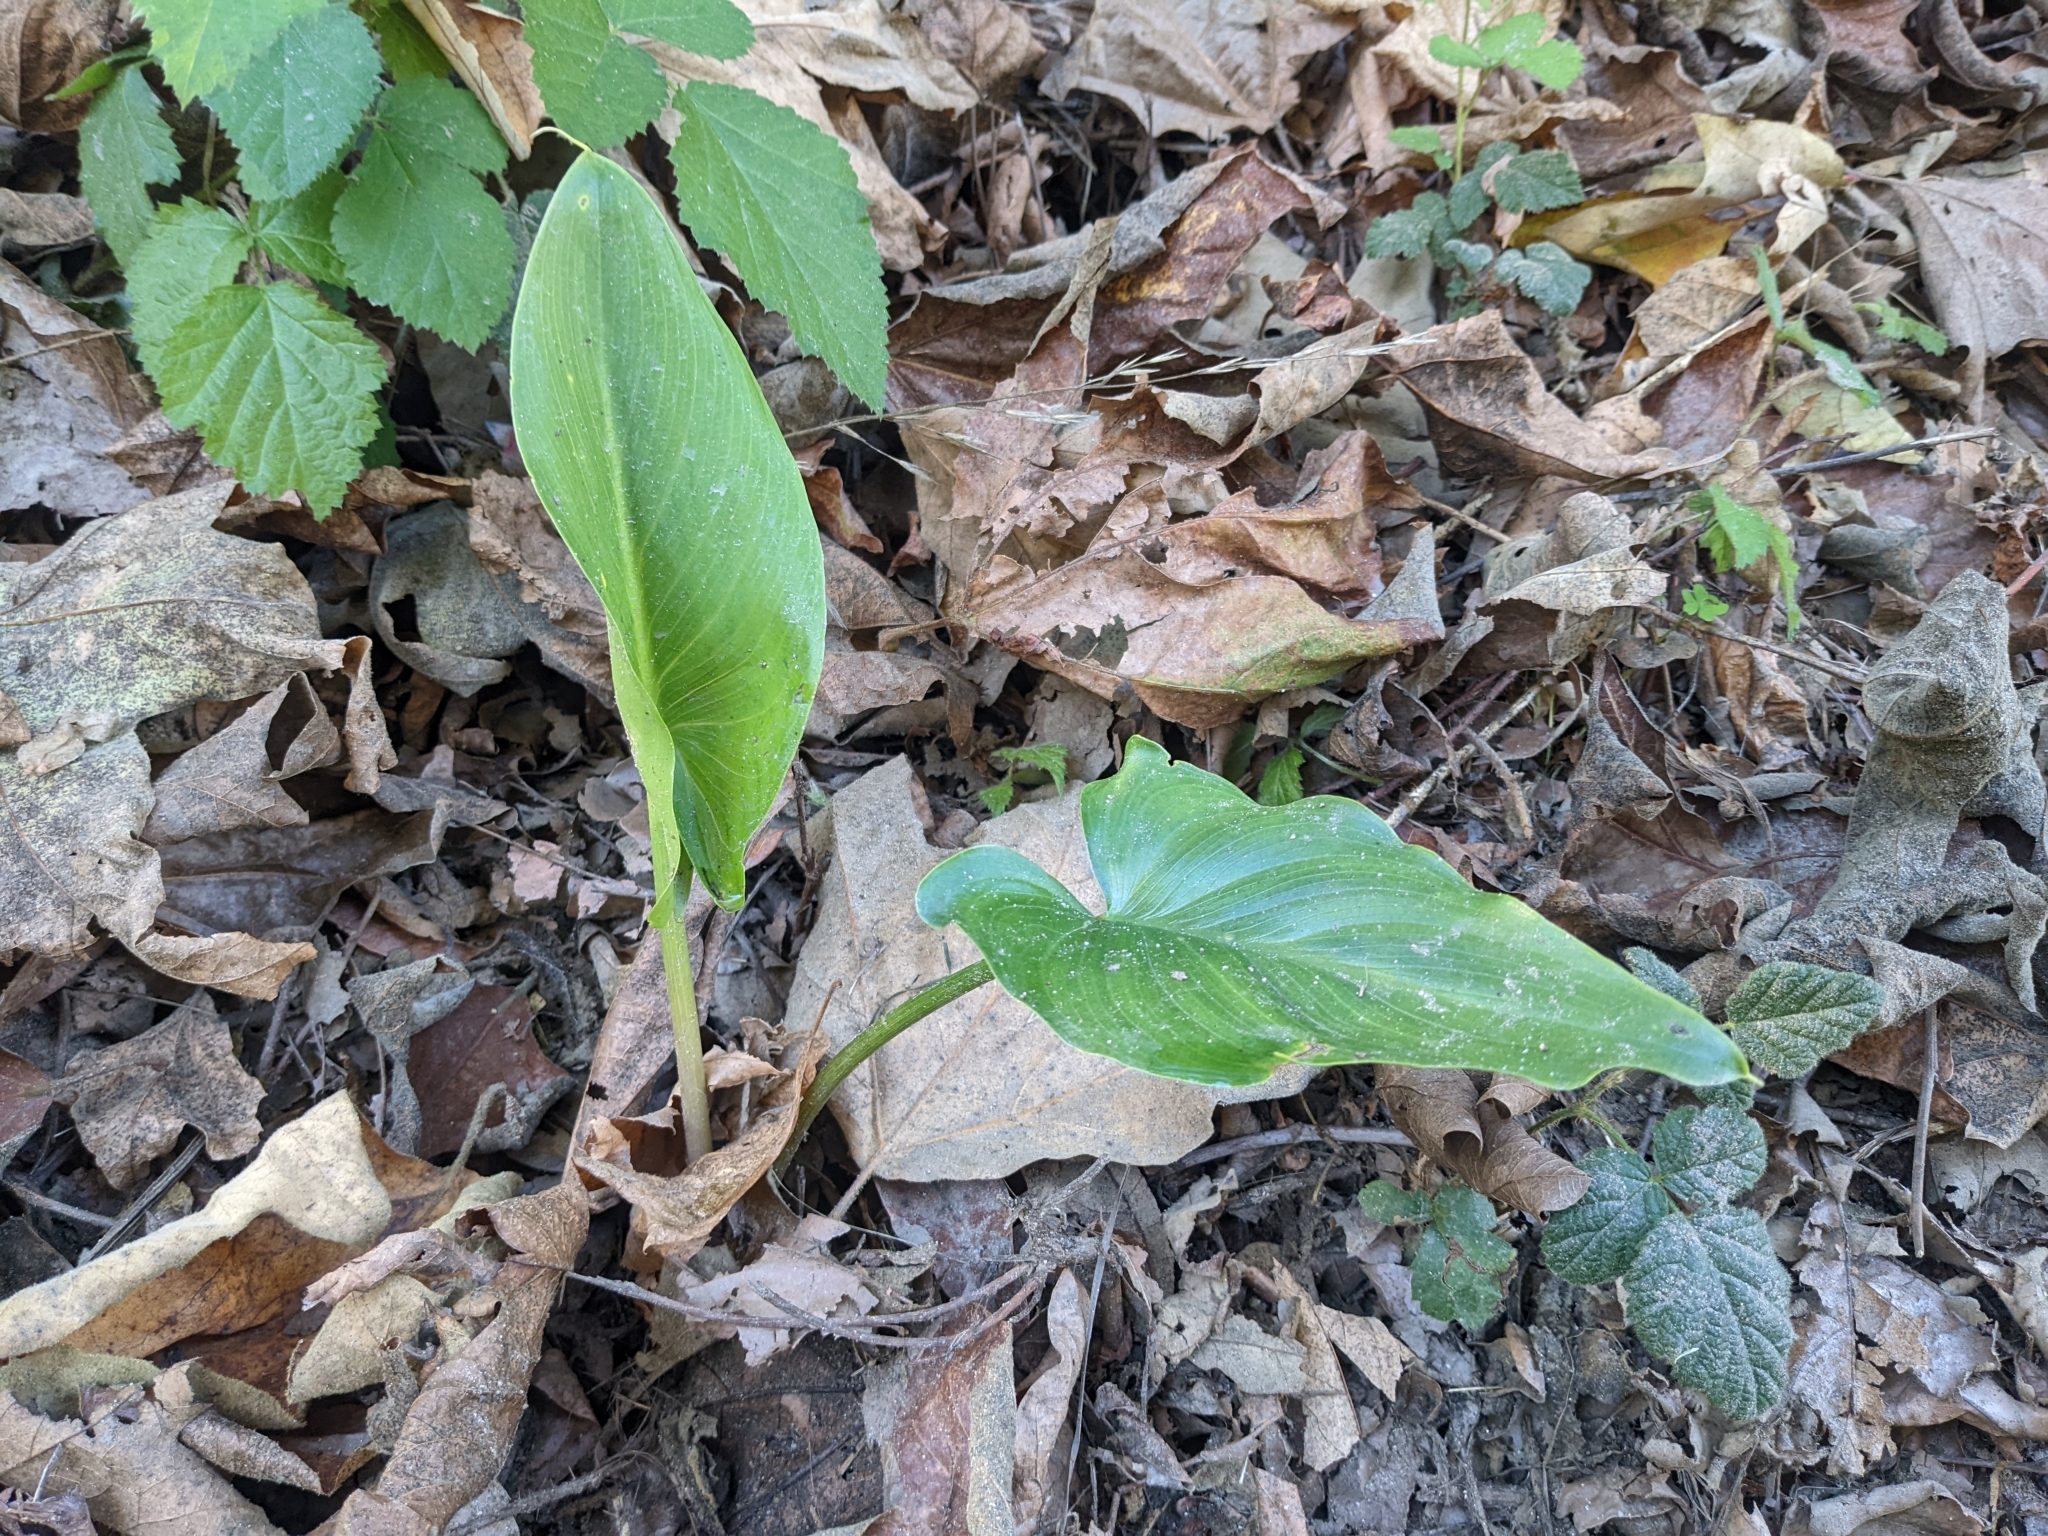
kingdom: Plantae
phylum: Tracheophyta
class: Liliopsida
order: Alismatales
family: Araceae
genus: Zantedeschia
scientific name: Zantedeschia aethiopica
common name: Altar-lily
